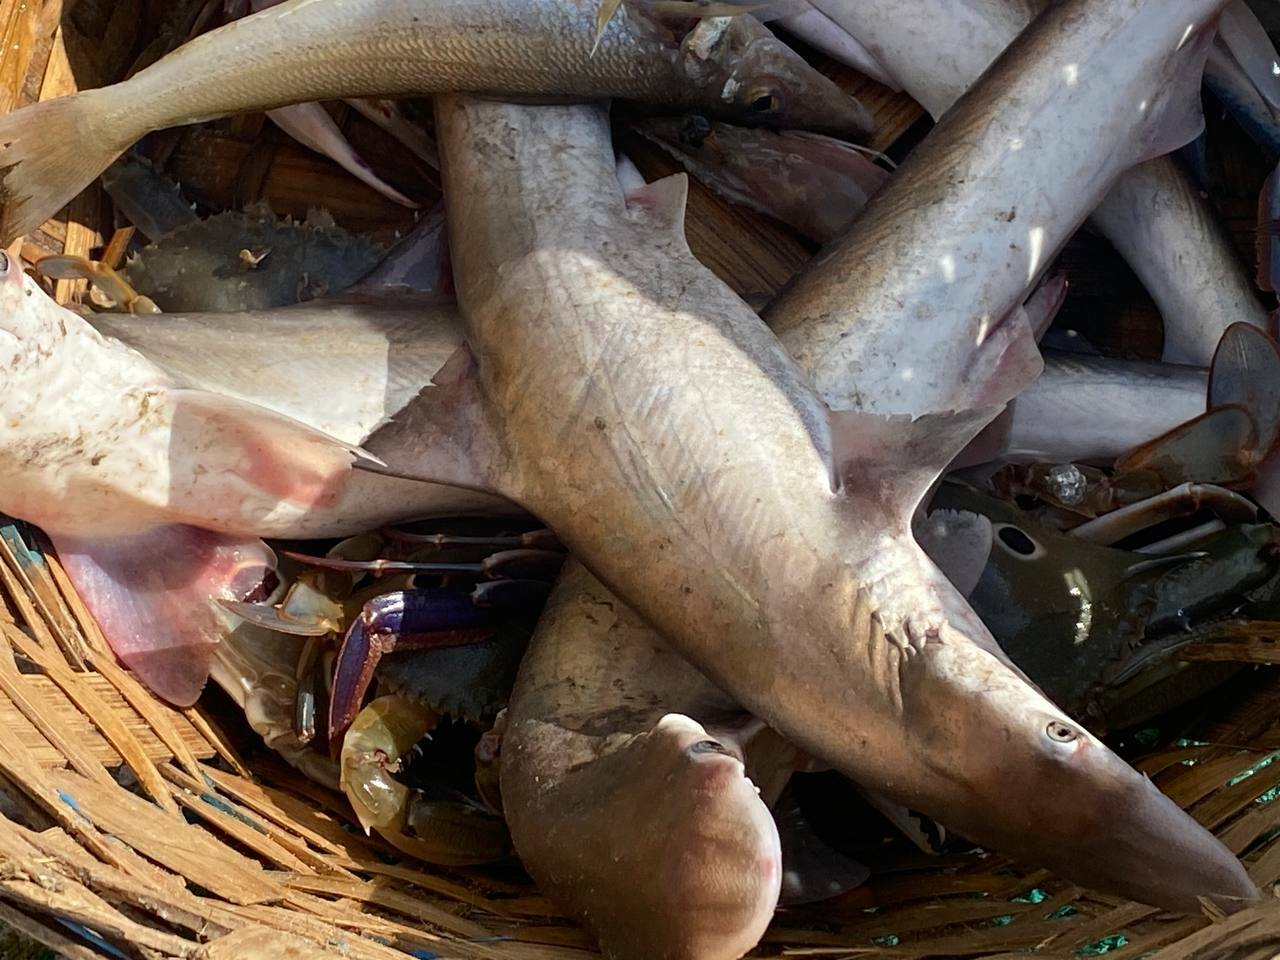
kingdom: Animalia
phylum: Chordata
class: Elasmobranchii
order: Carcharhiniformes
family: Carcharhinidae
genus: Scoliodon
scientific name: Scoliodon laticaudus
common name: Spadenose shark
